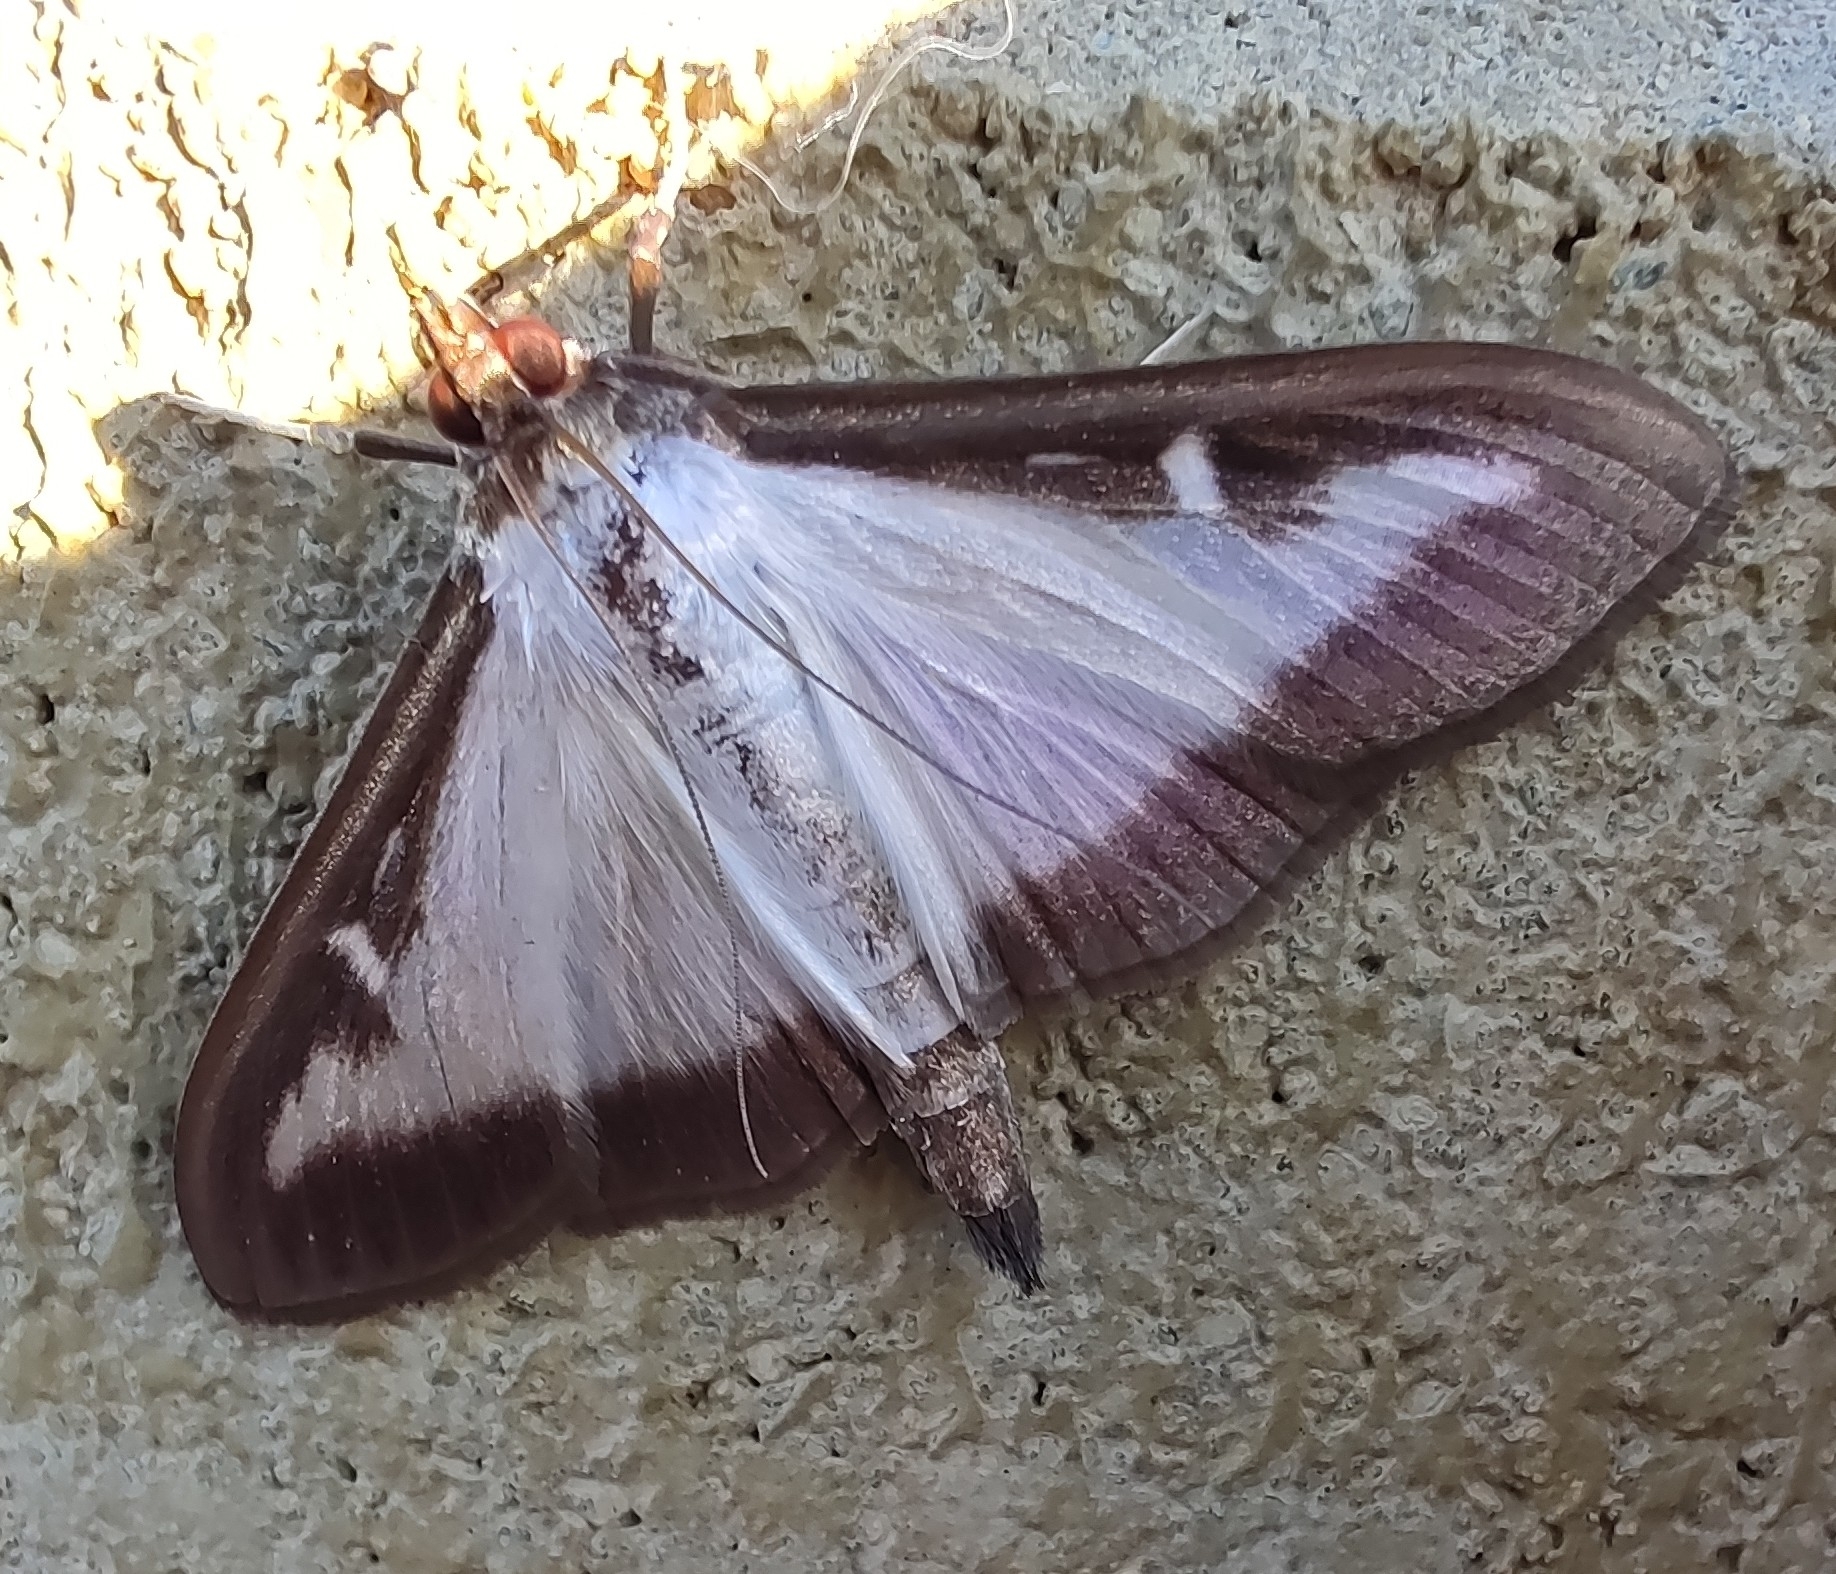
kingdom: Animalia
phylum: Arthropoda
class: Insecta
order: Lepidoptera
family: Crambidae
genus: Cydalima
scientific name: Cydalima perspectalis
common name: Box tree moth
